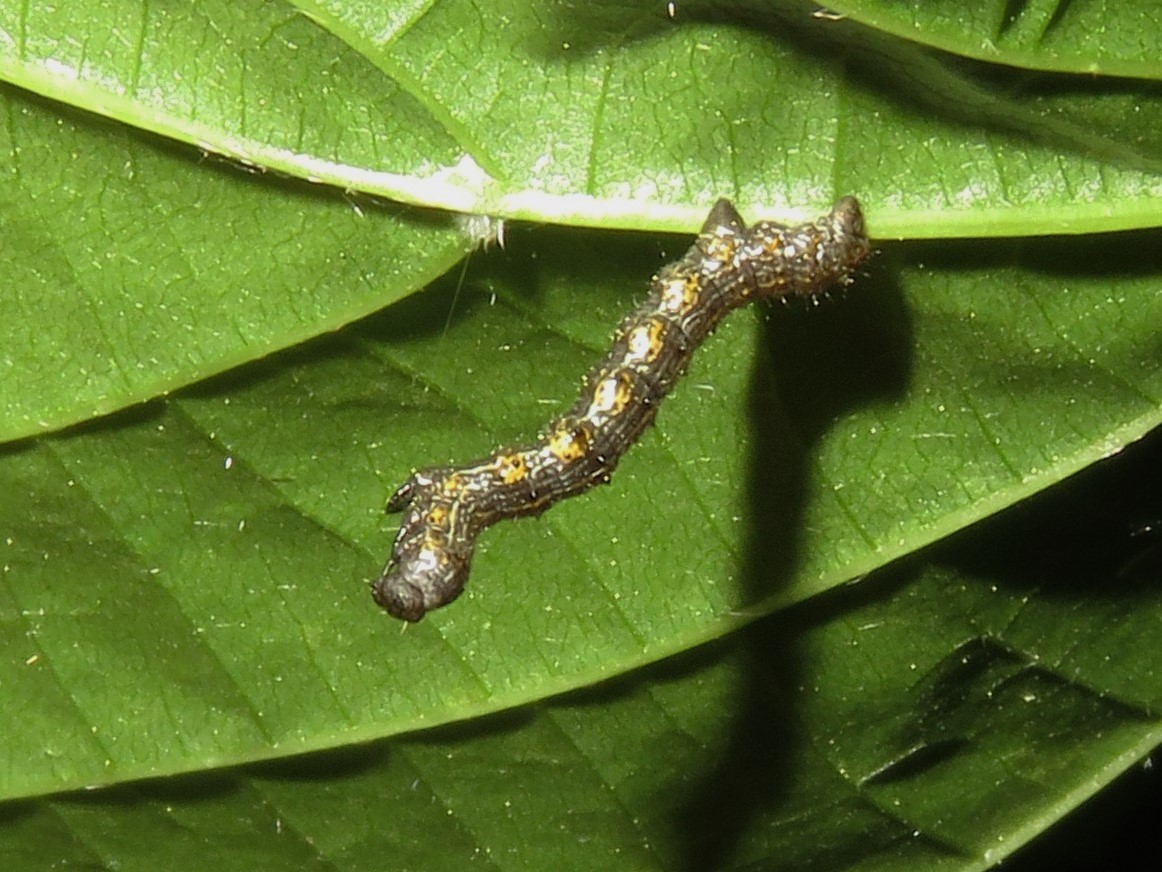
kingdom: Animalia
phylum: Arthropoda
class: Insecta
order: Lepidoptera
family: Geometridae
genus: Phigalia
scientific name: Phigalia titea
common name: Spiny looper
